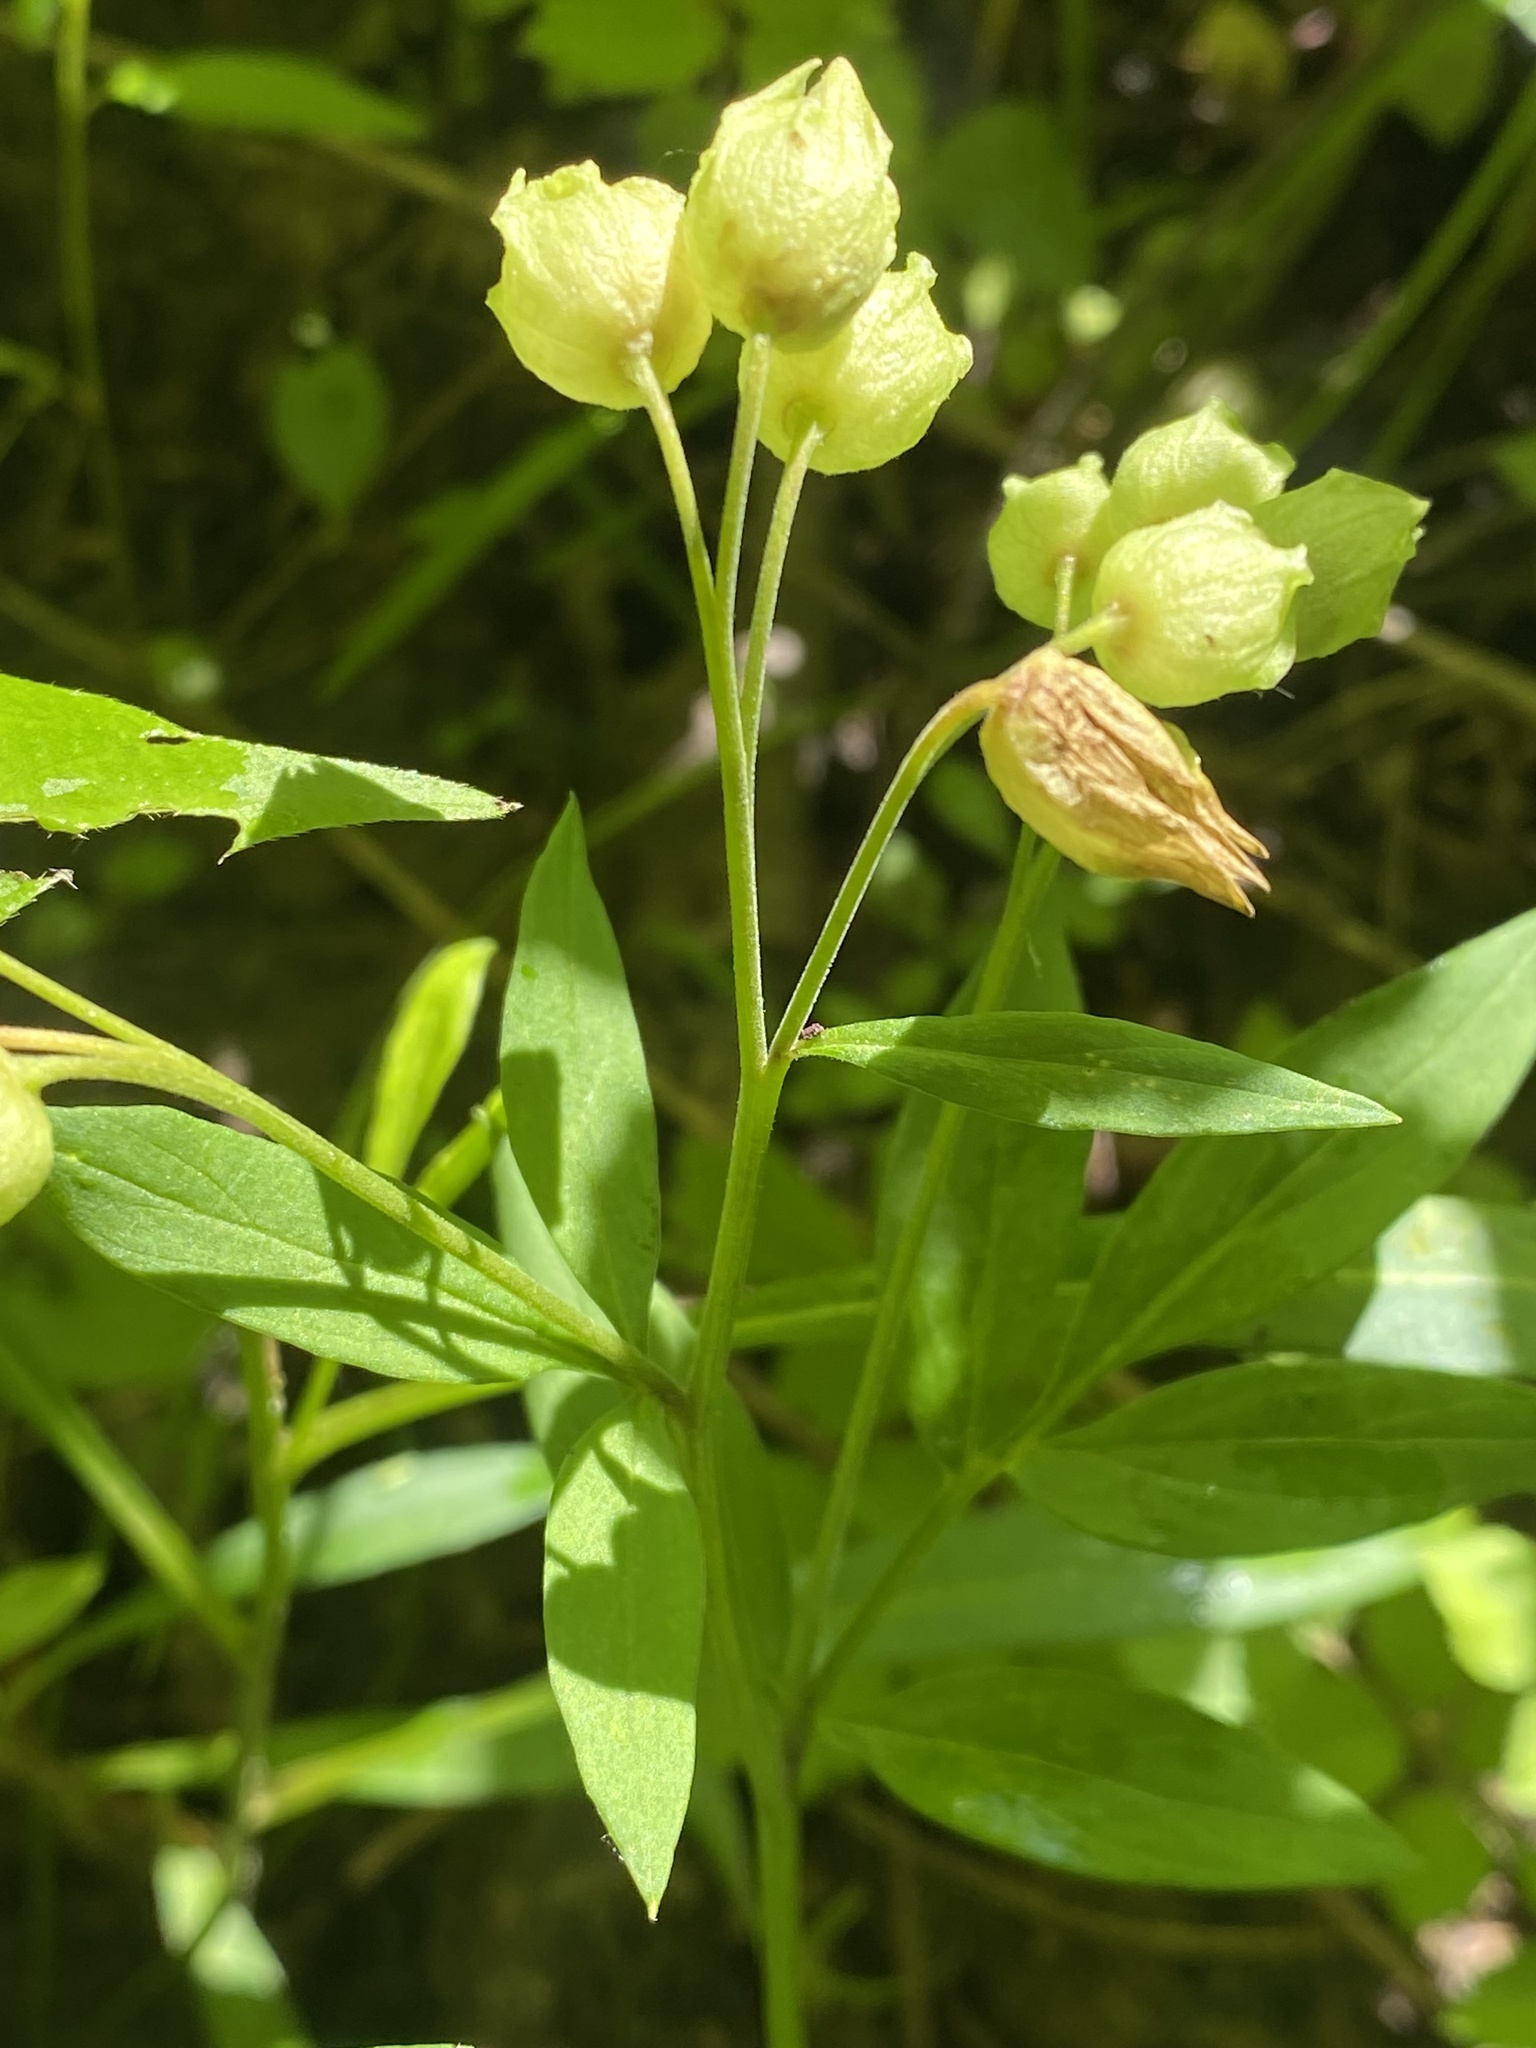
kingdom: Plantae
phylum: Tracheophyta
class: Magnoliopsida
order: Ericales
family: Polemoniaceae
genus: Polemonium
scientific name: Polemonium reptans
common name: Creeping jacob's-ladder
